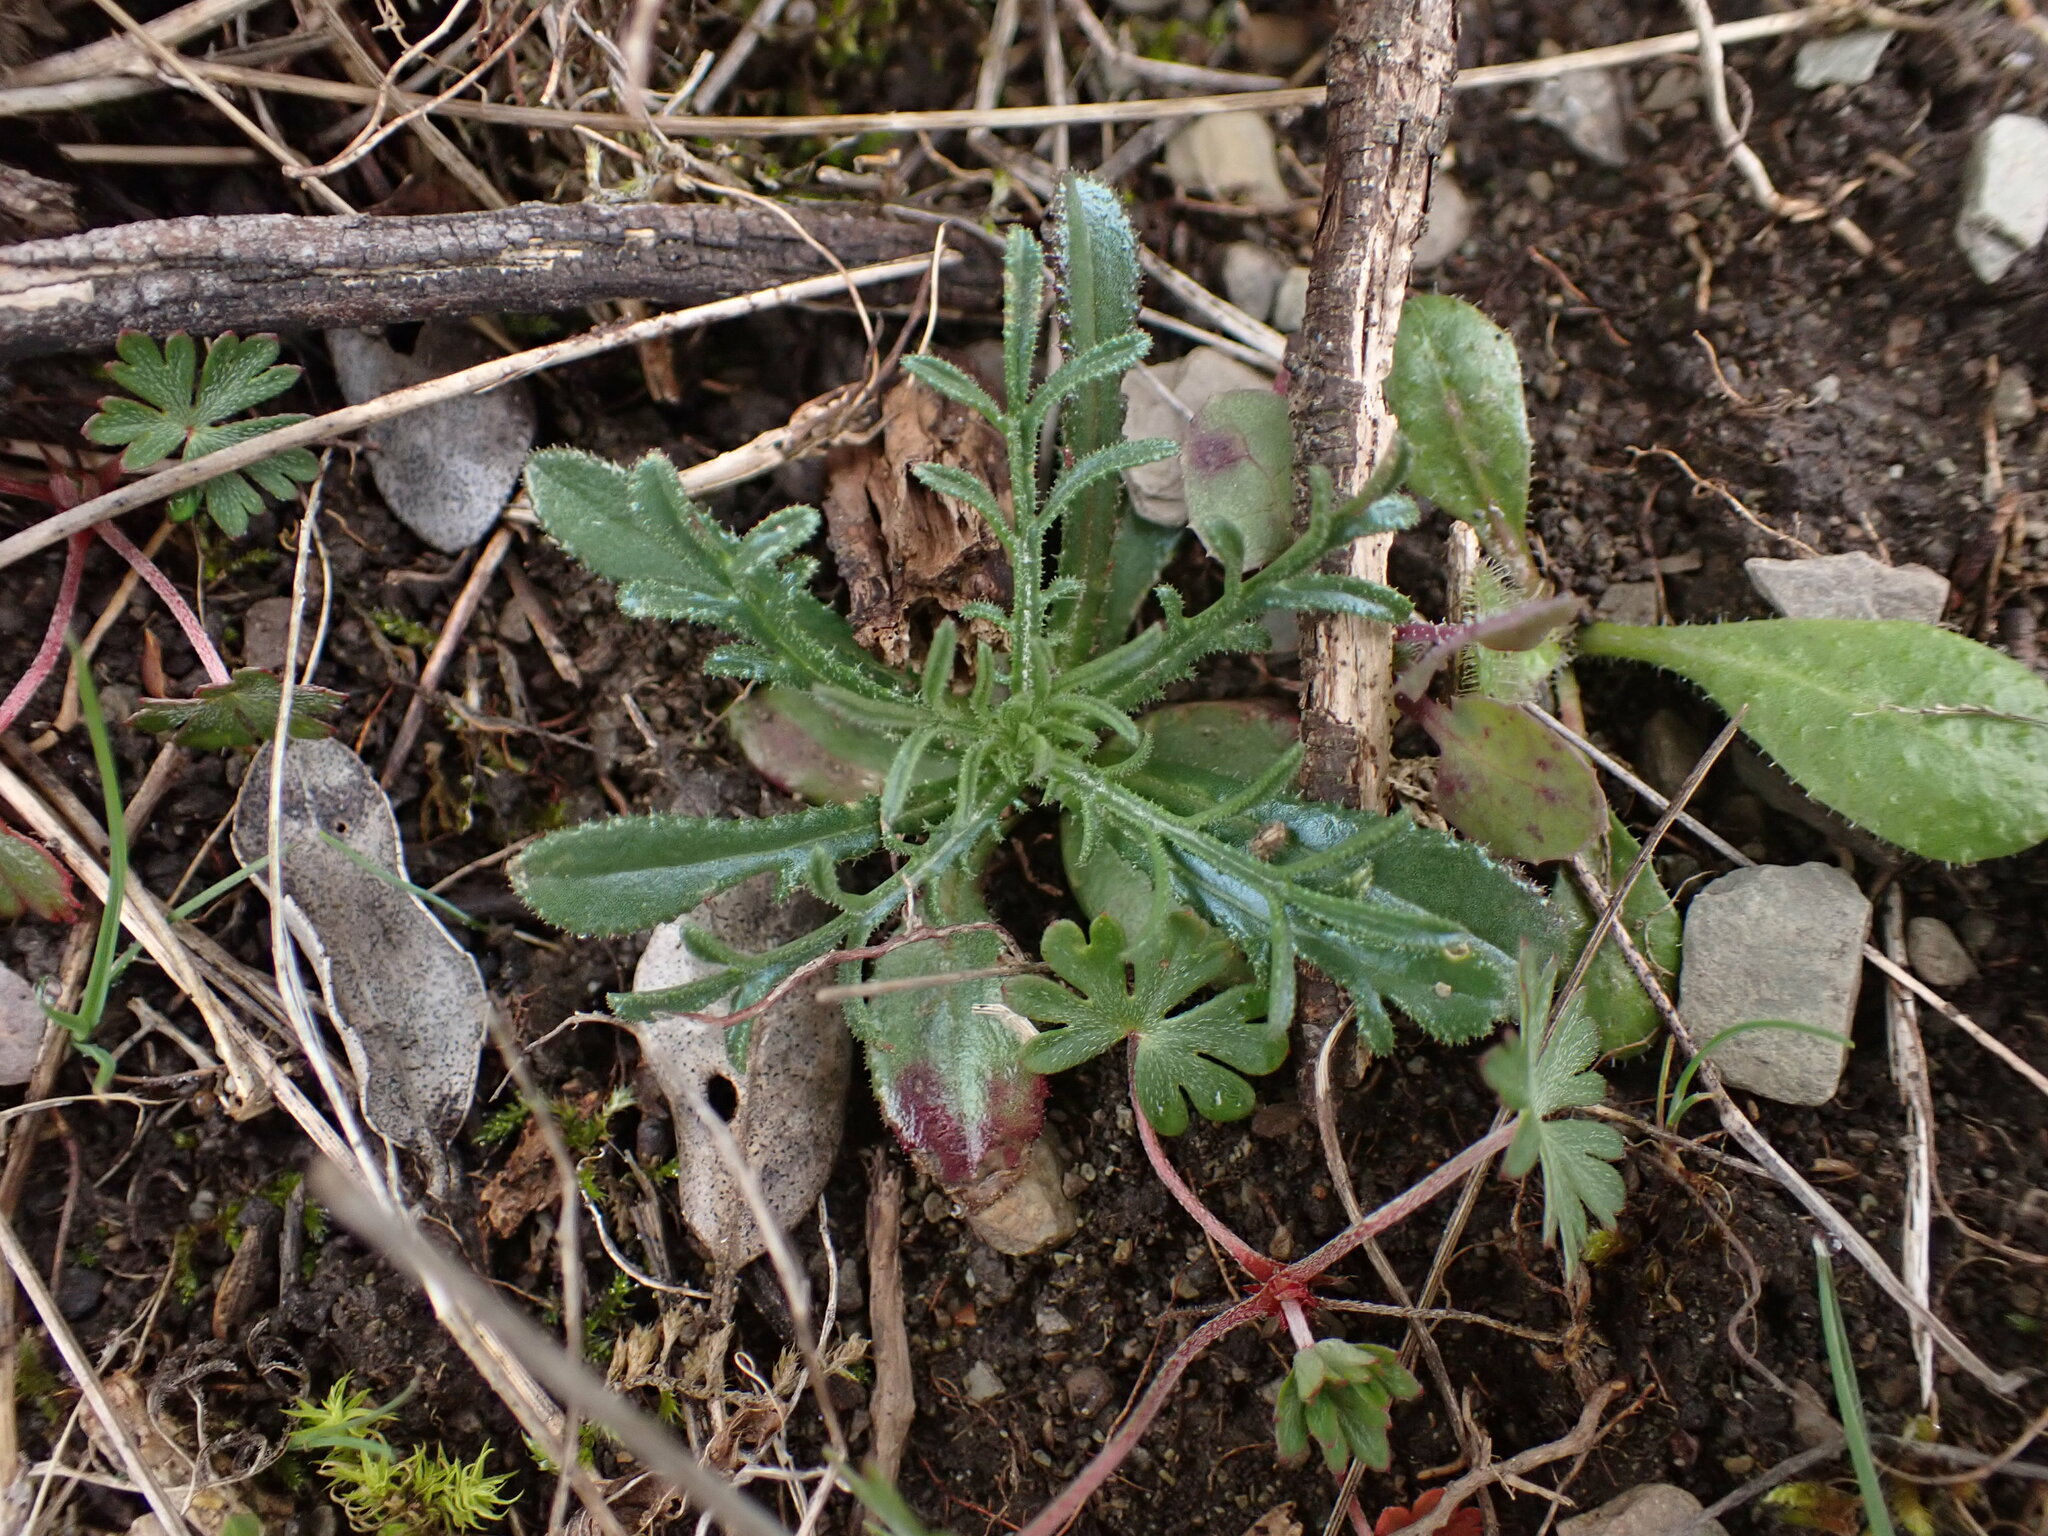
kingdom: Plantae
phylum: Tracheophyta
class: Magnoliopsida
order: Asterales
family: Asteraceae
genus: Crupina
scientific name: Crupina vulgaris
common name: Common crupina
